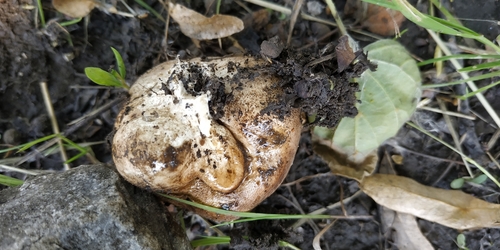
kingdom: Fungi
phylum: Basidiomycota
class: Agaricomycetes
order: Boletales
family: Sclerodermataceae
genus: Scleroderma
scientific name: Scleroderma
